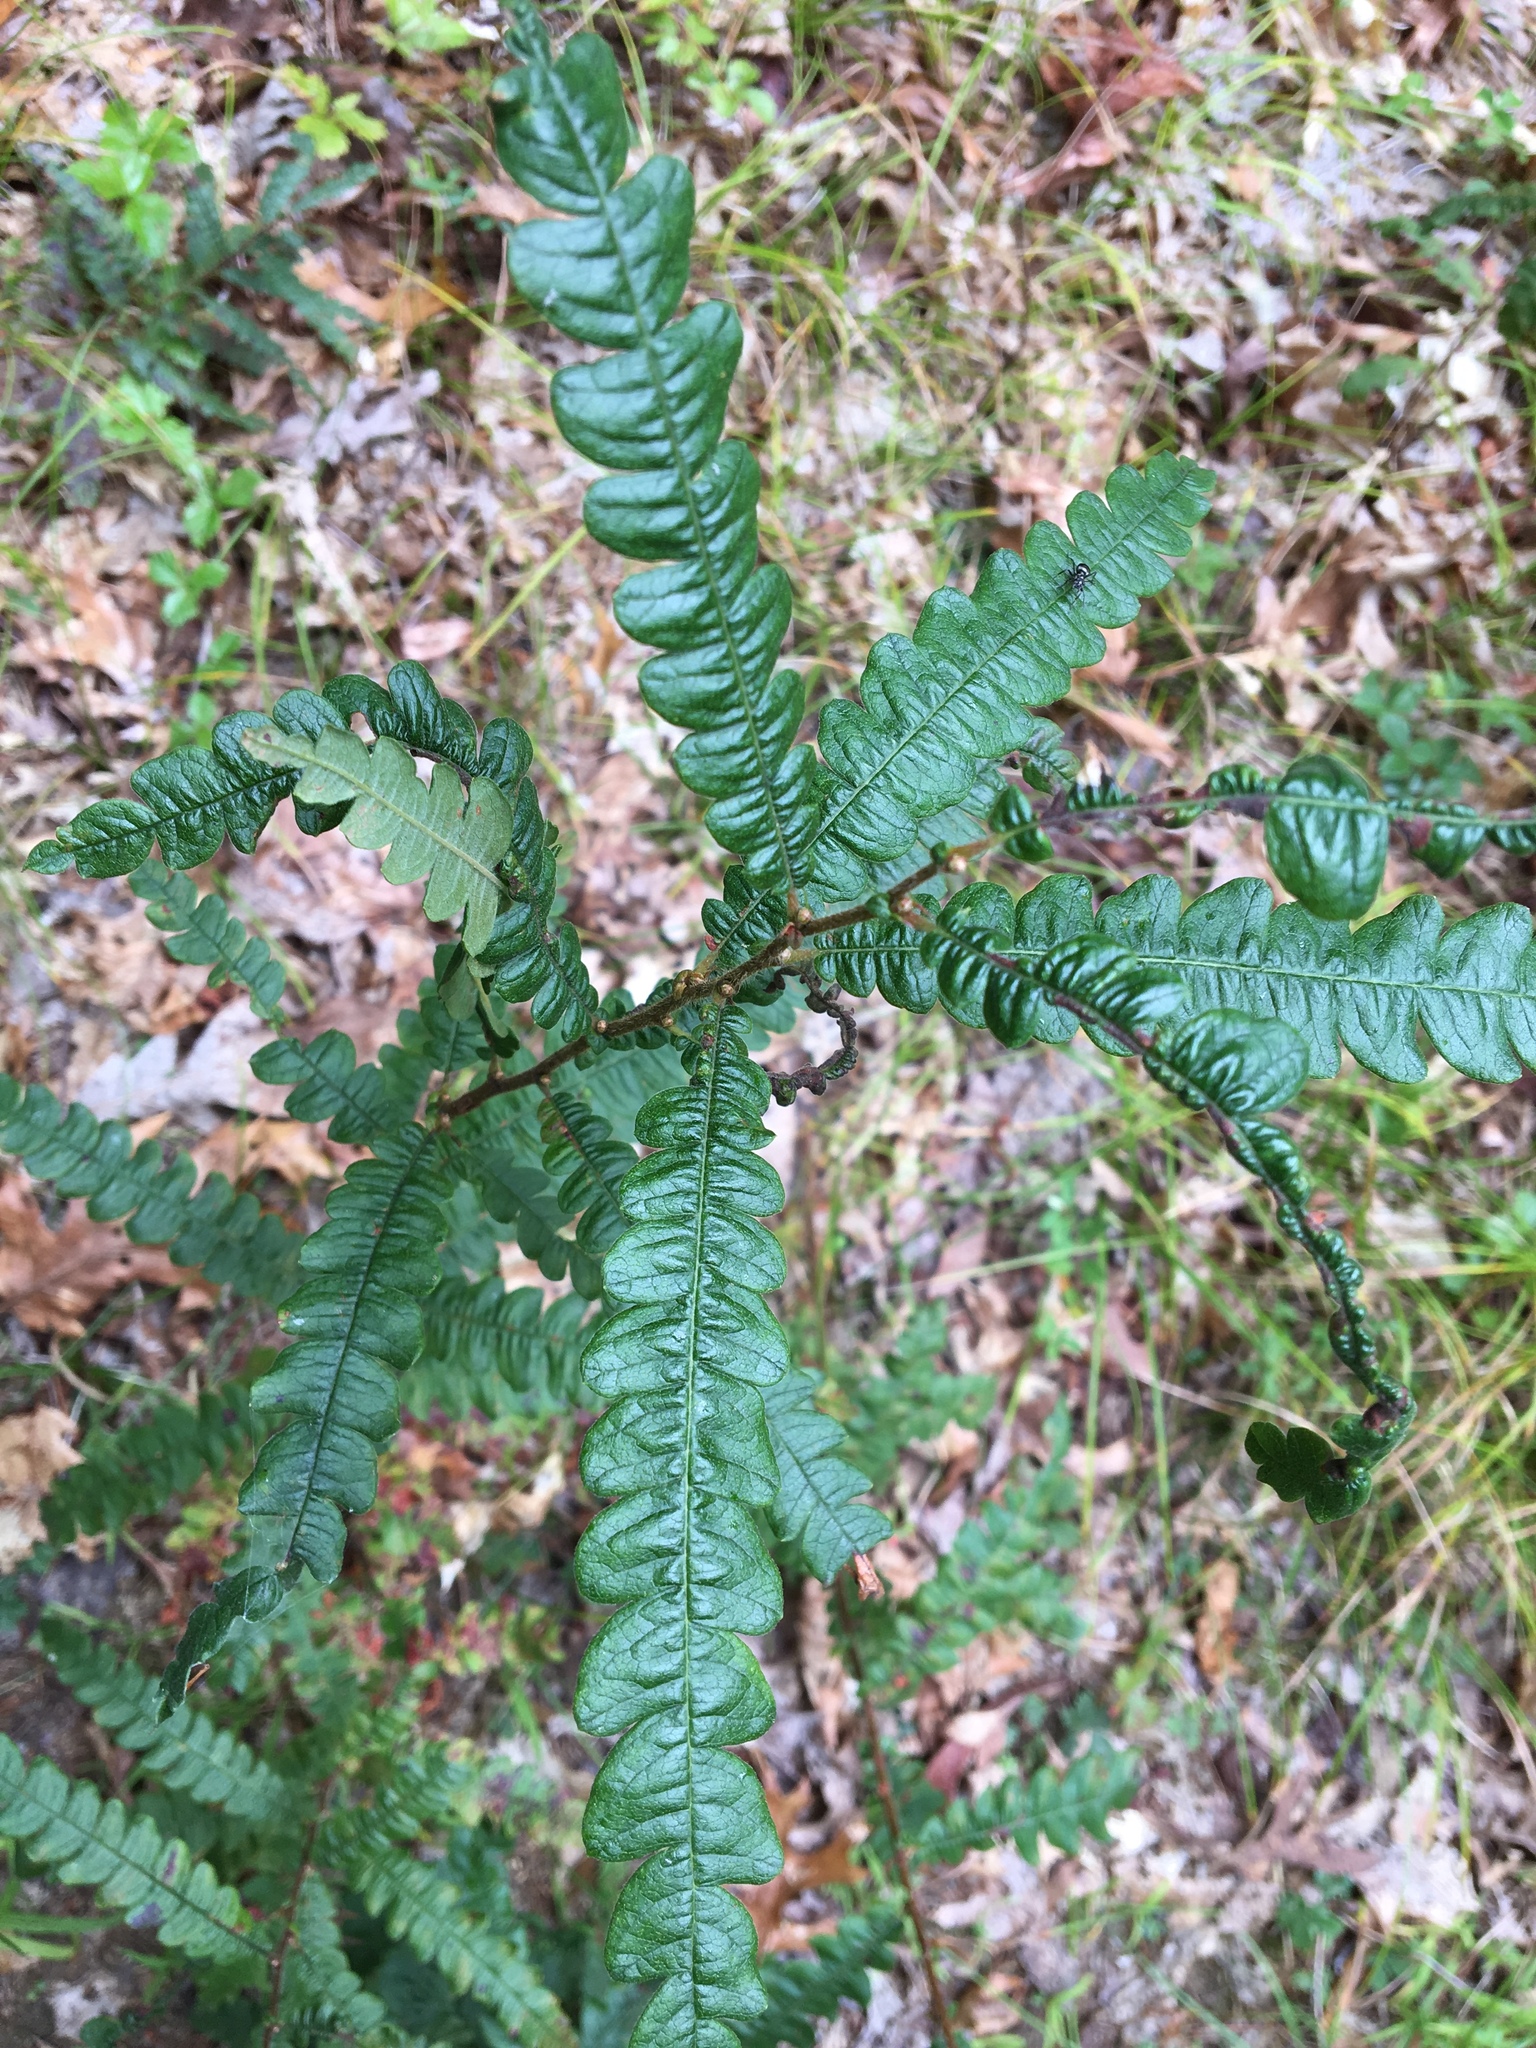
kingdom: Plantae
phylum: Tracheophyta
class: Magnoliopsida
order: Fagales
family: Myricaceae
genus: Comptonia
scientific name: Comptonia peregrina
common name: Sweet-fern
